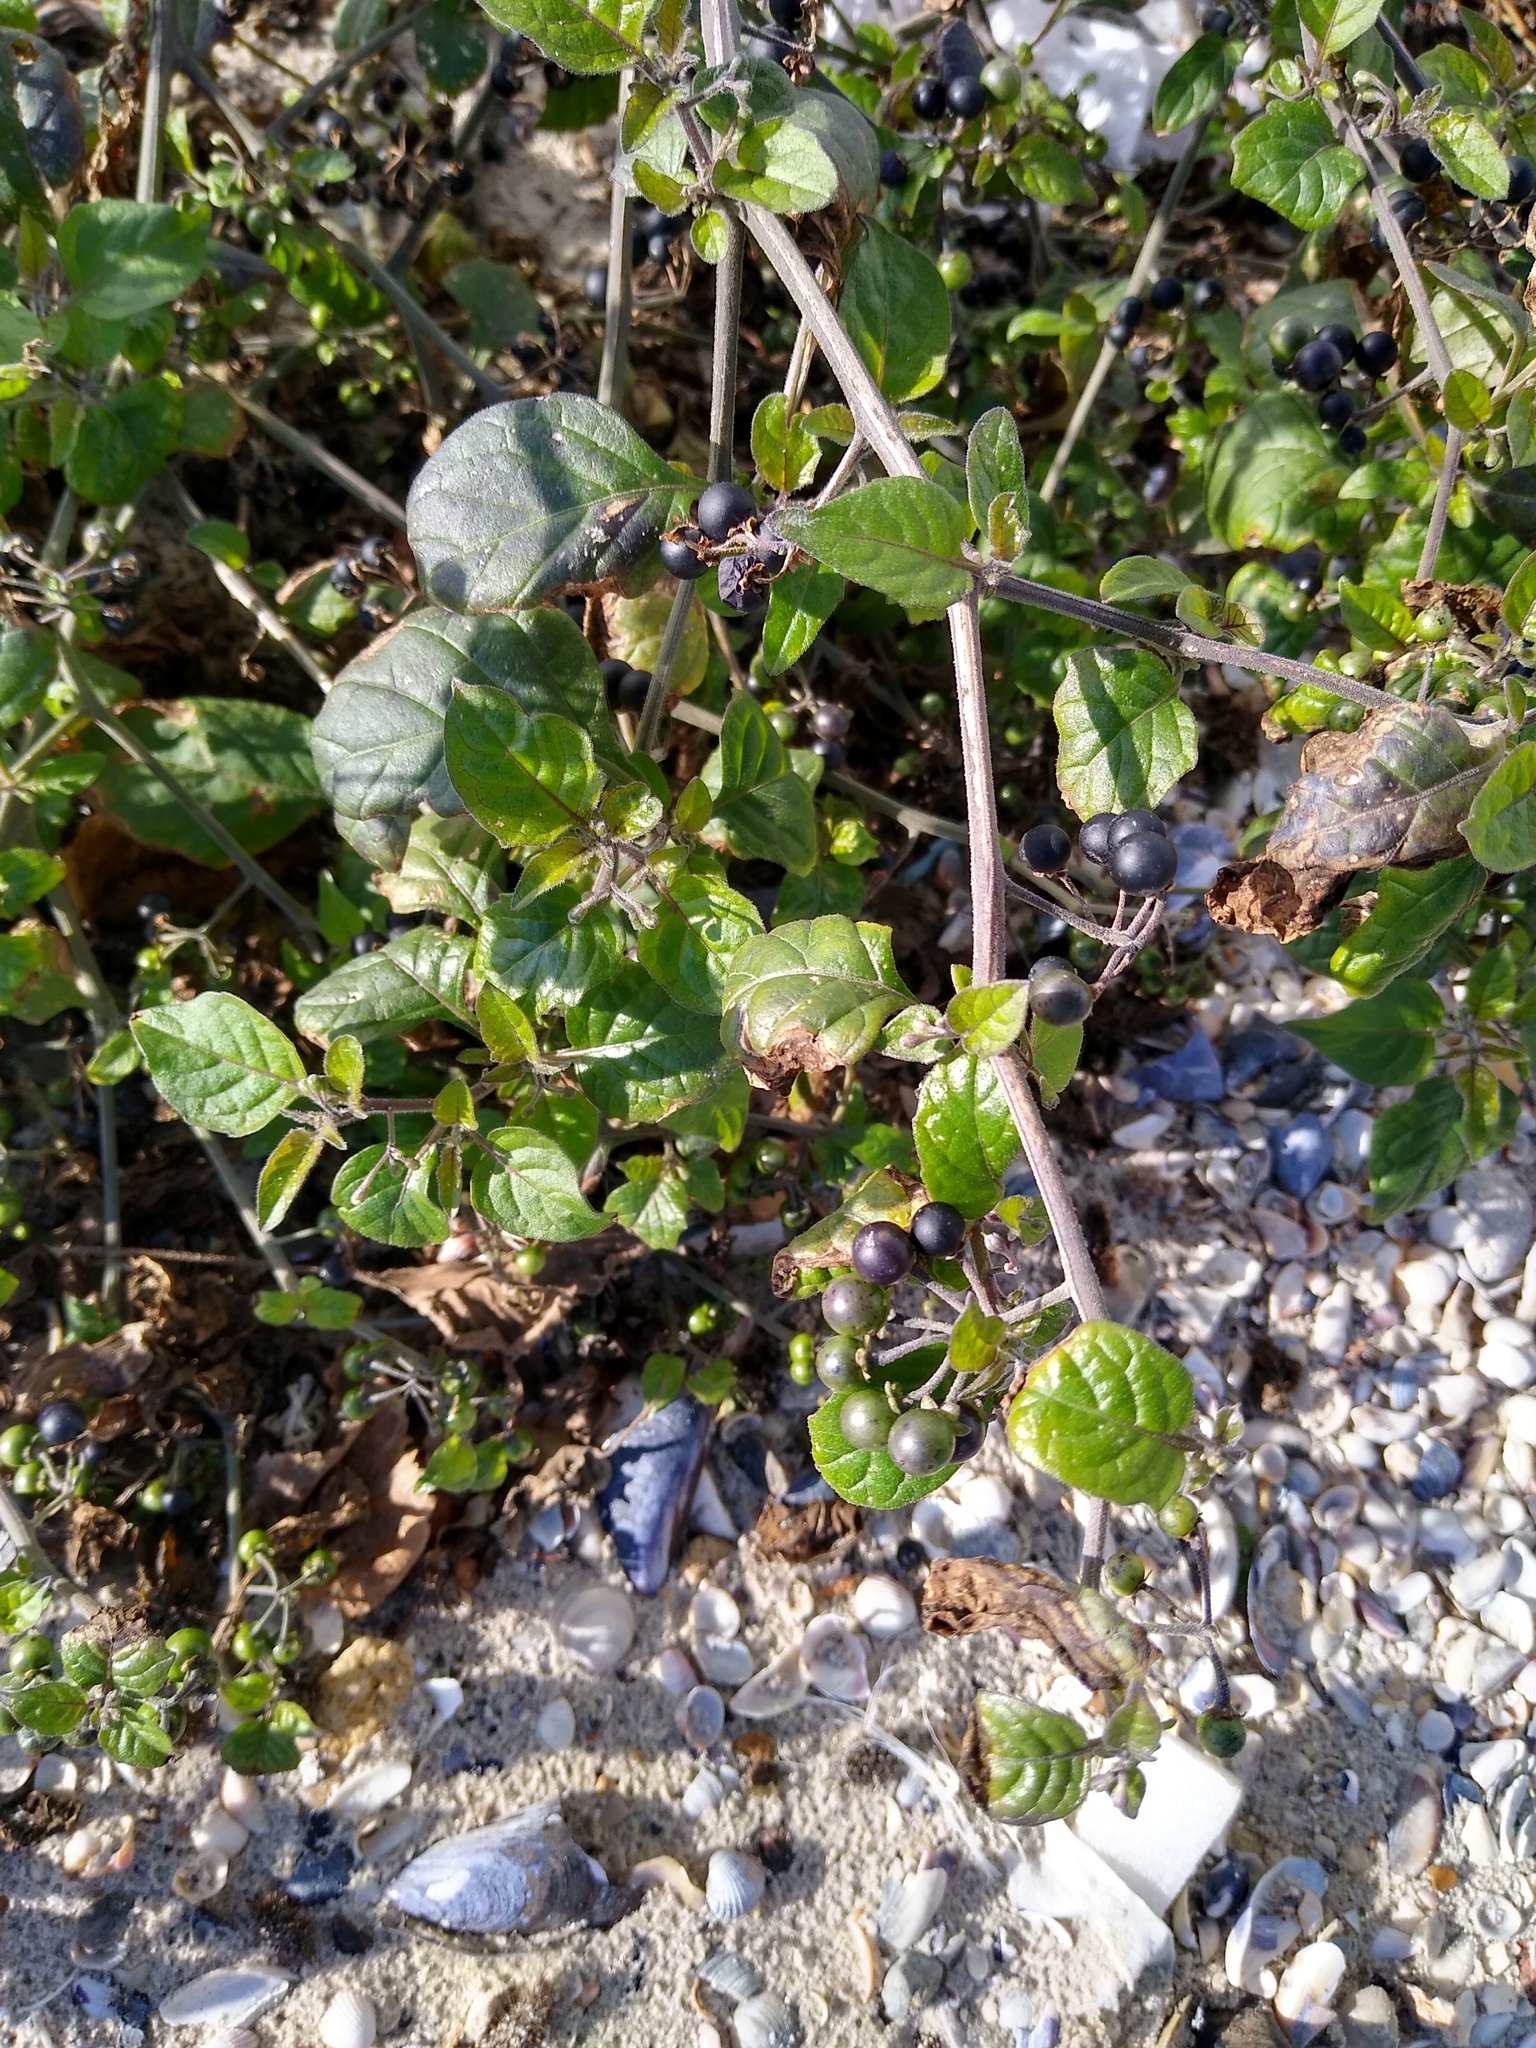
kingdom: Plantae
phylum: Tracheophyta
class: Magnoliopsida
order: Solanales
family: Solanaceae
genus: Solanum
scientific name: Solanum nigrum
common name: Black nightshade
